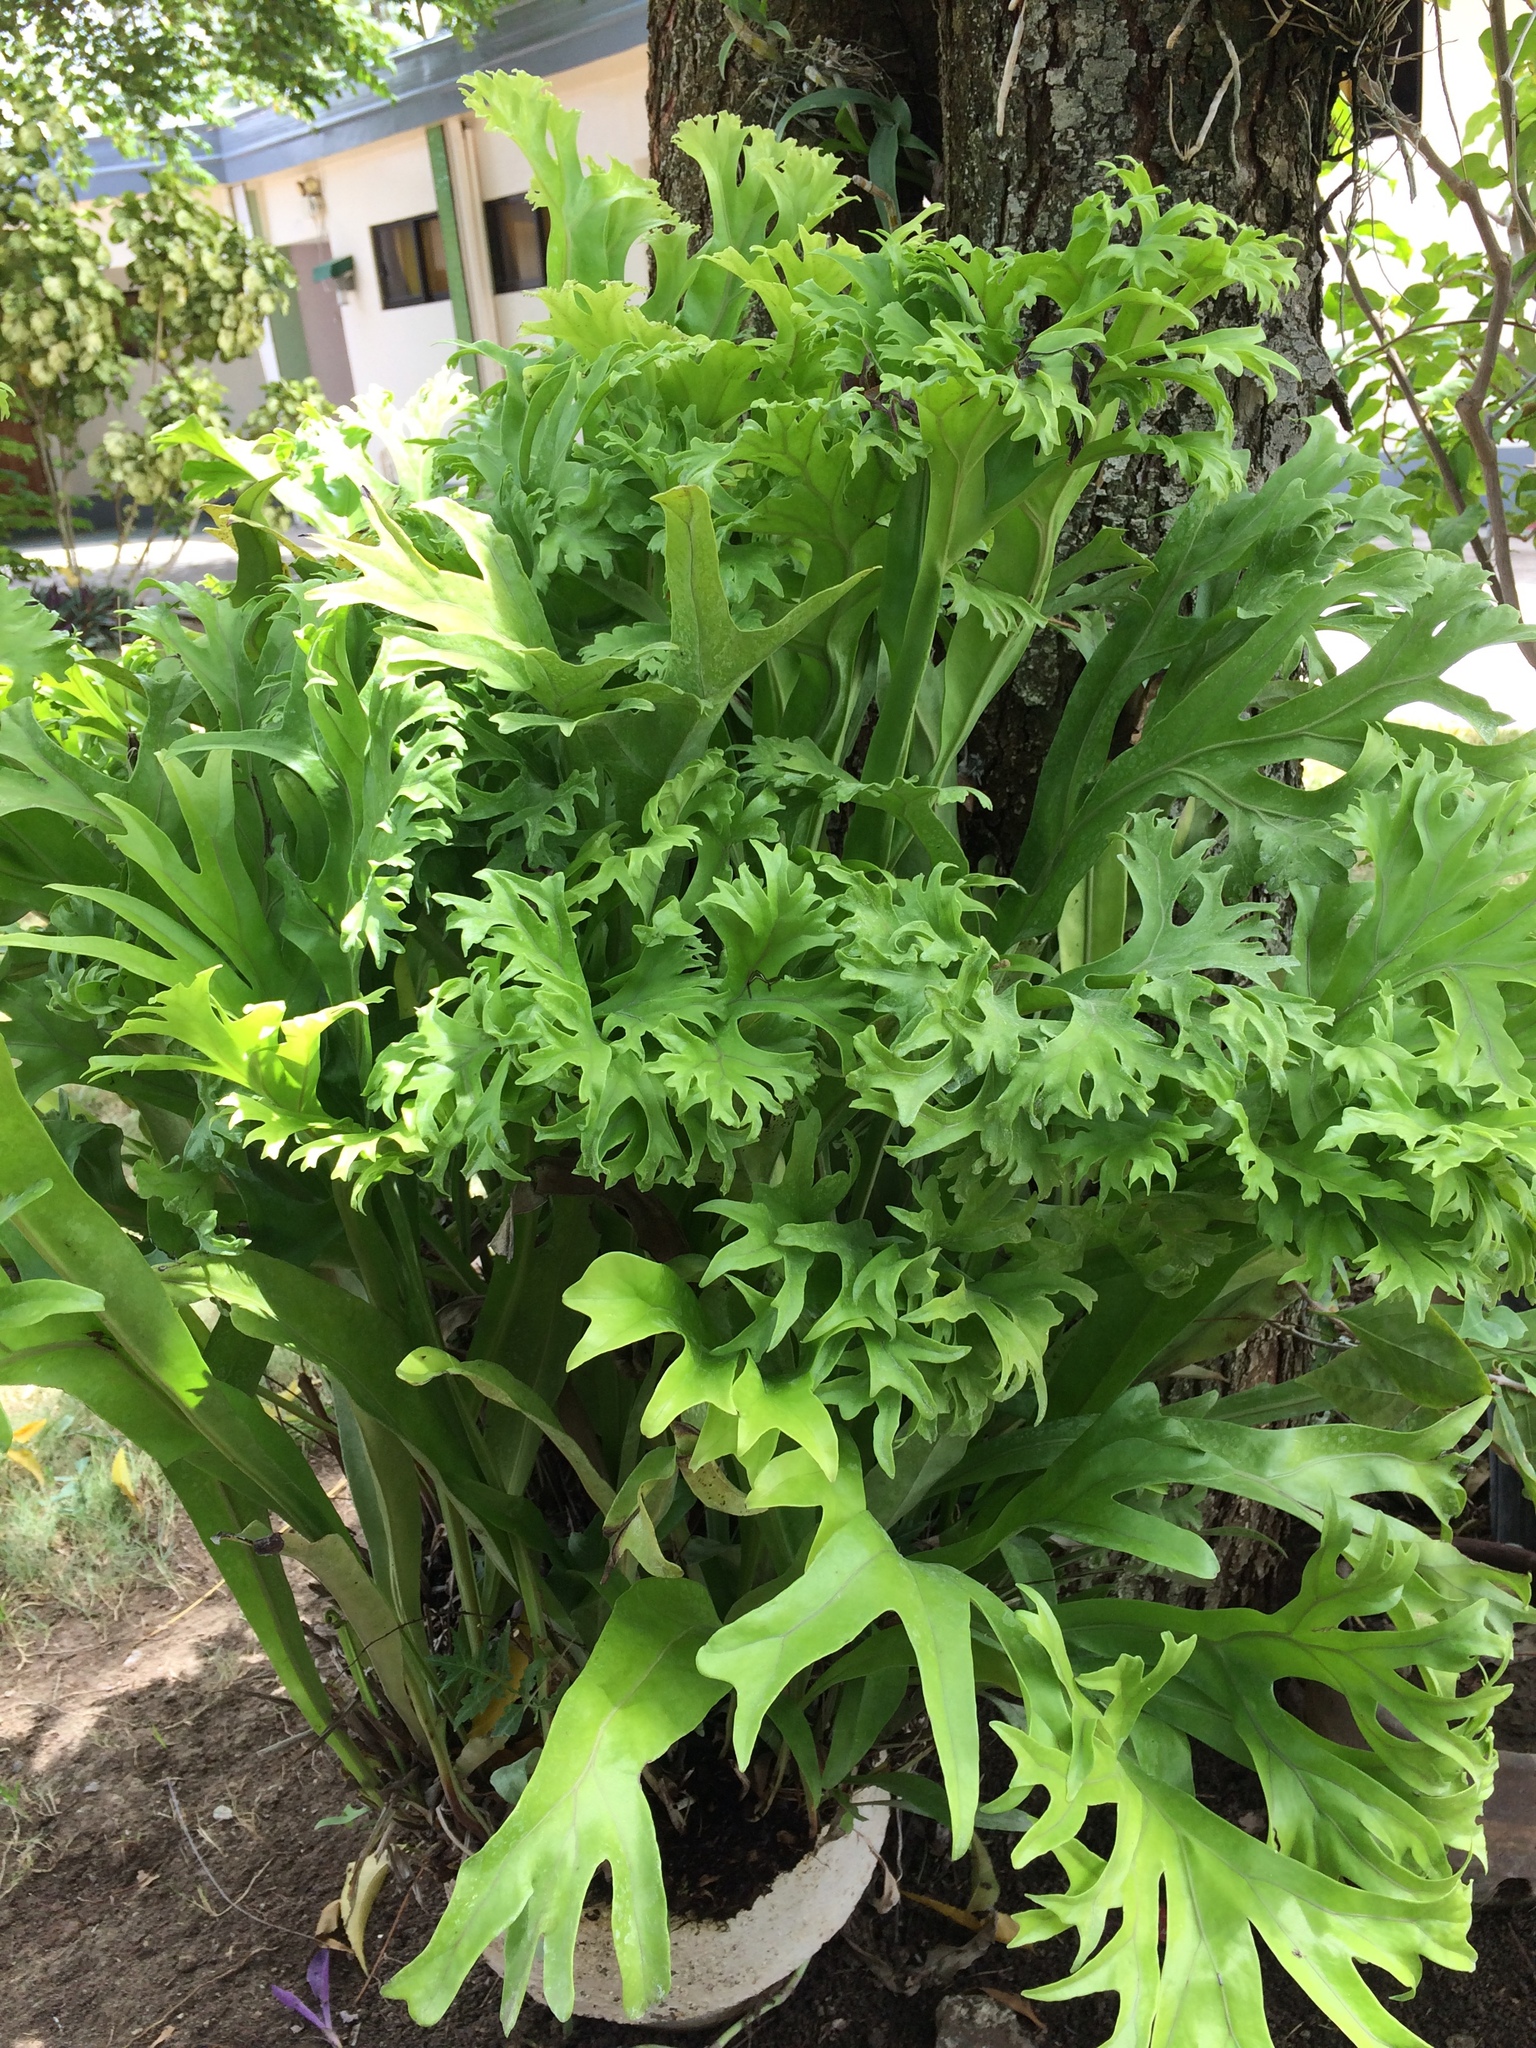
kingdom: Plantae
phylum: Tracheophyta
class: Polypodiopsida
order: Polypodiales
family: Polypodiaceae
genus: Microsorum
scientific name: Microsorum punctatum
